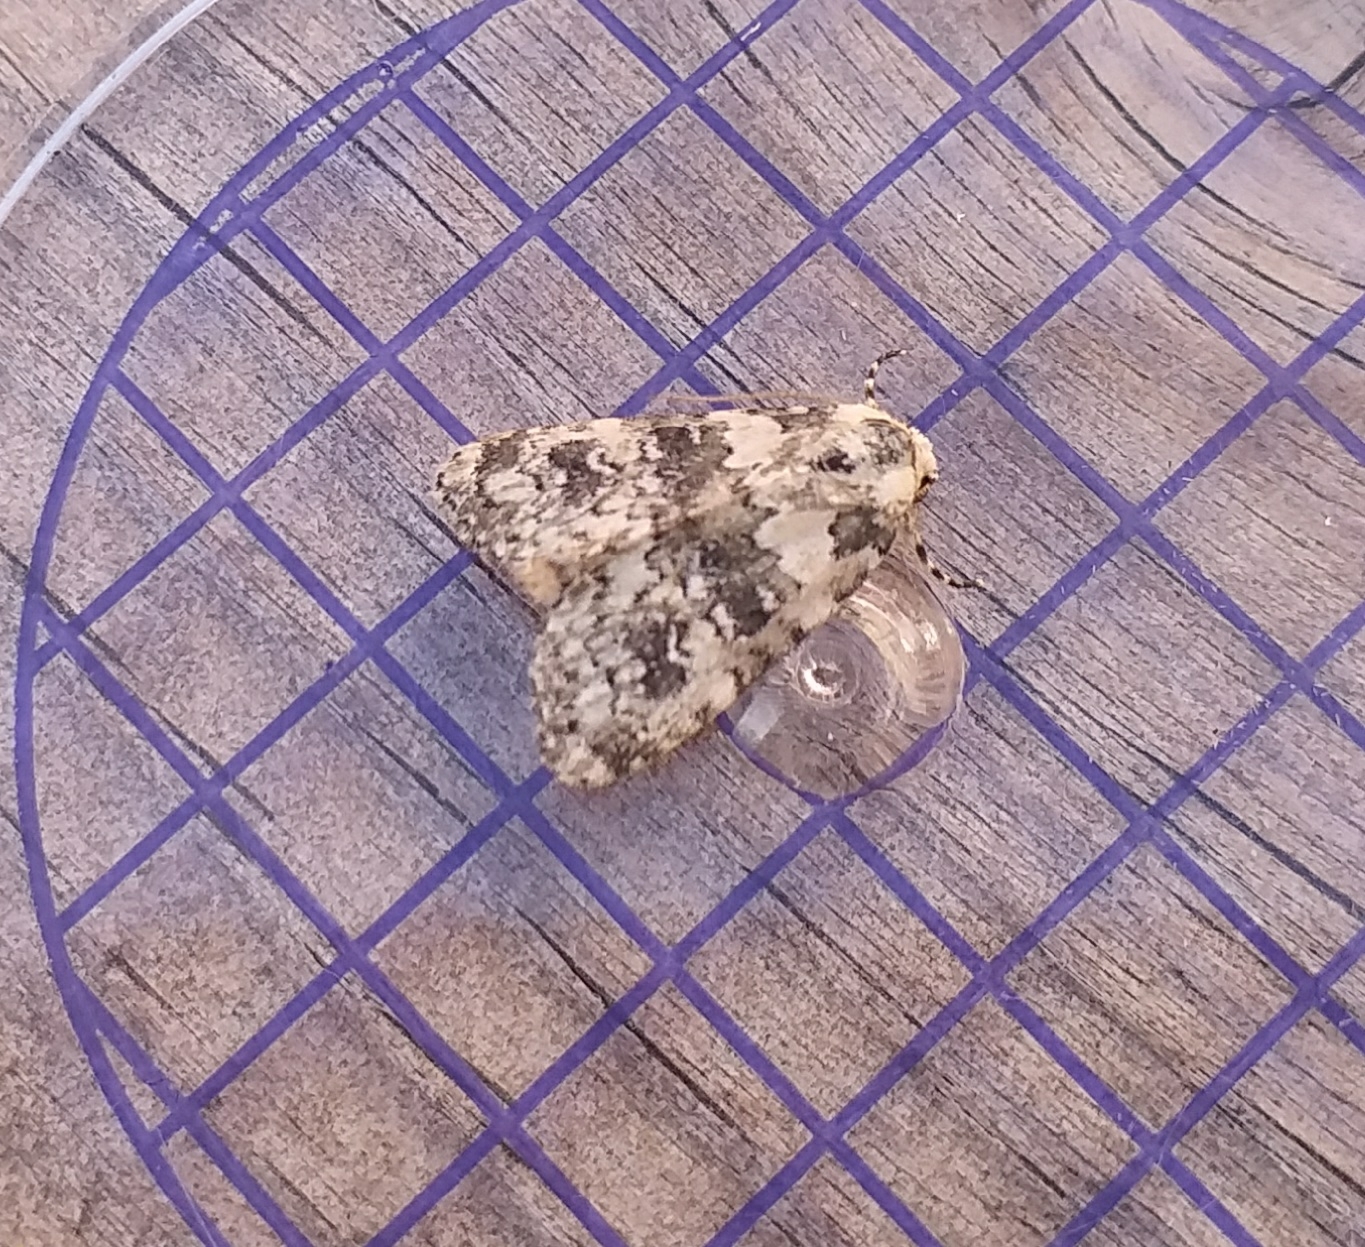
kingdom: Animalia
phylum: Arthropoda
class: Insecta
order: Lepidoptera
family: Noctuidae
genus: Bryophila
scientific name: Bryophila domestica
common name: Marbled beauty
